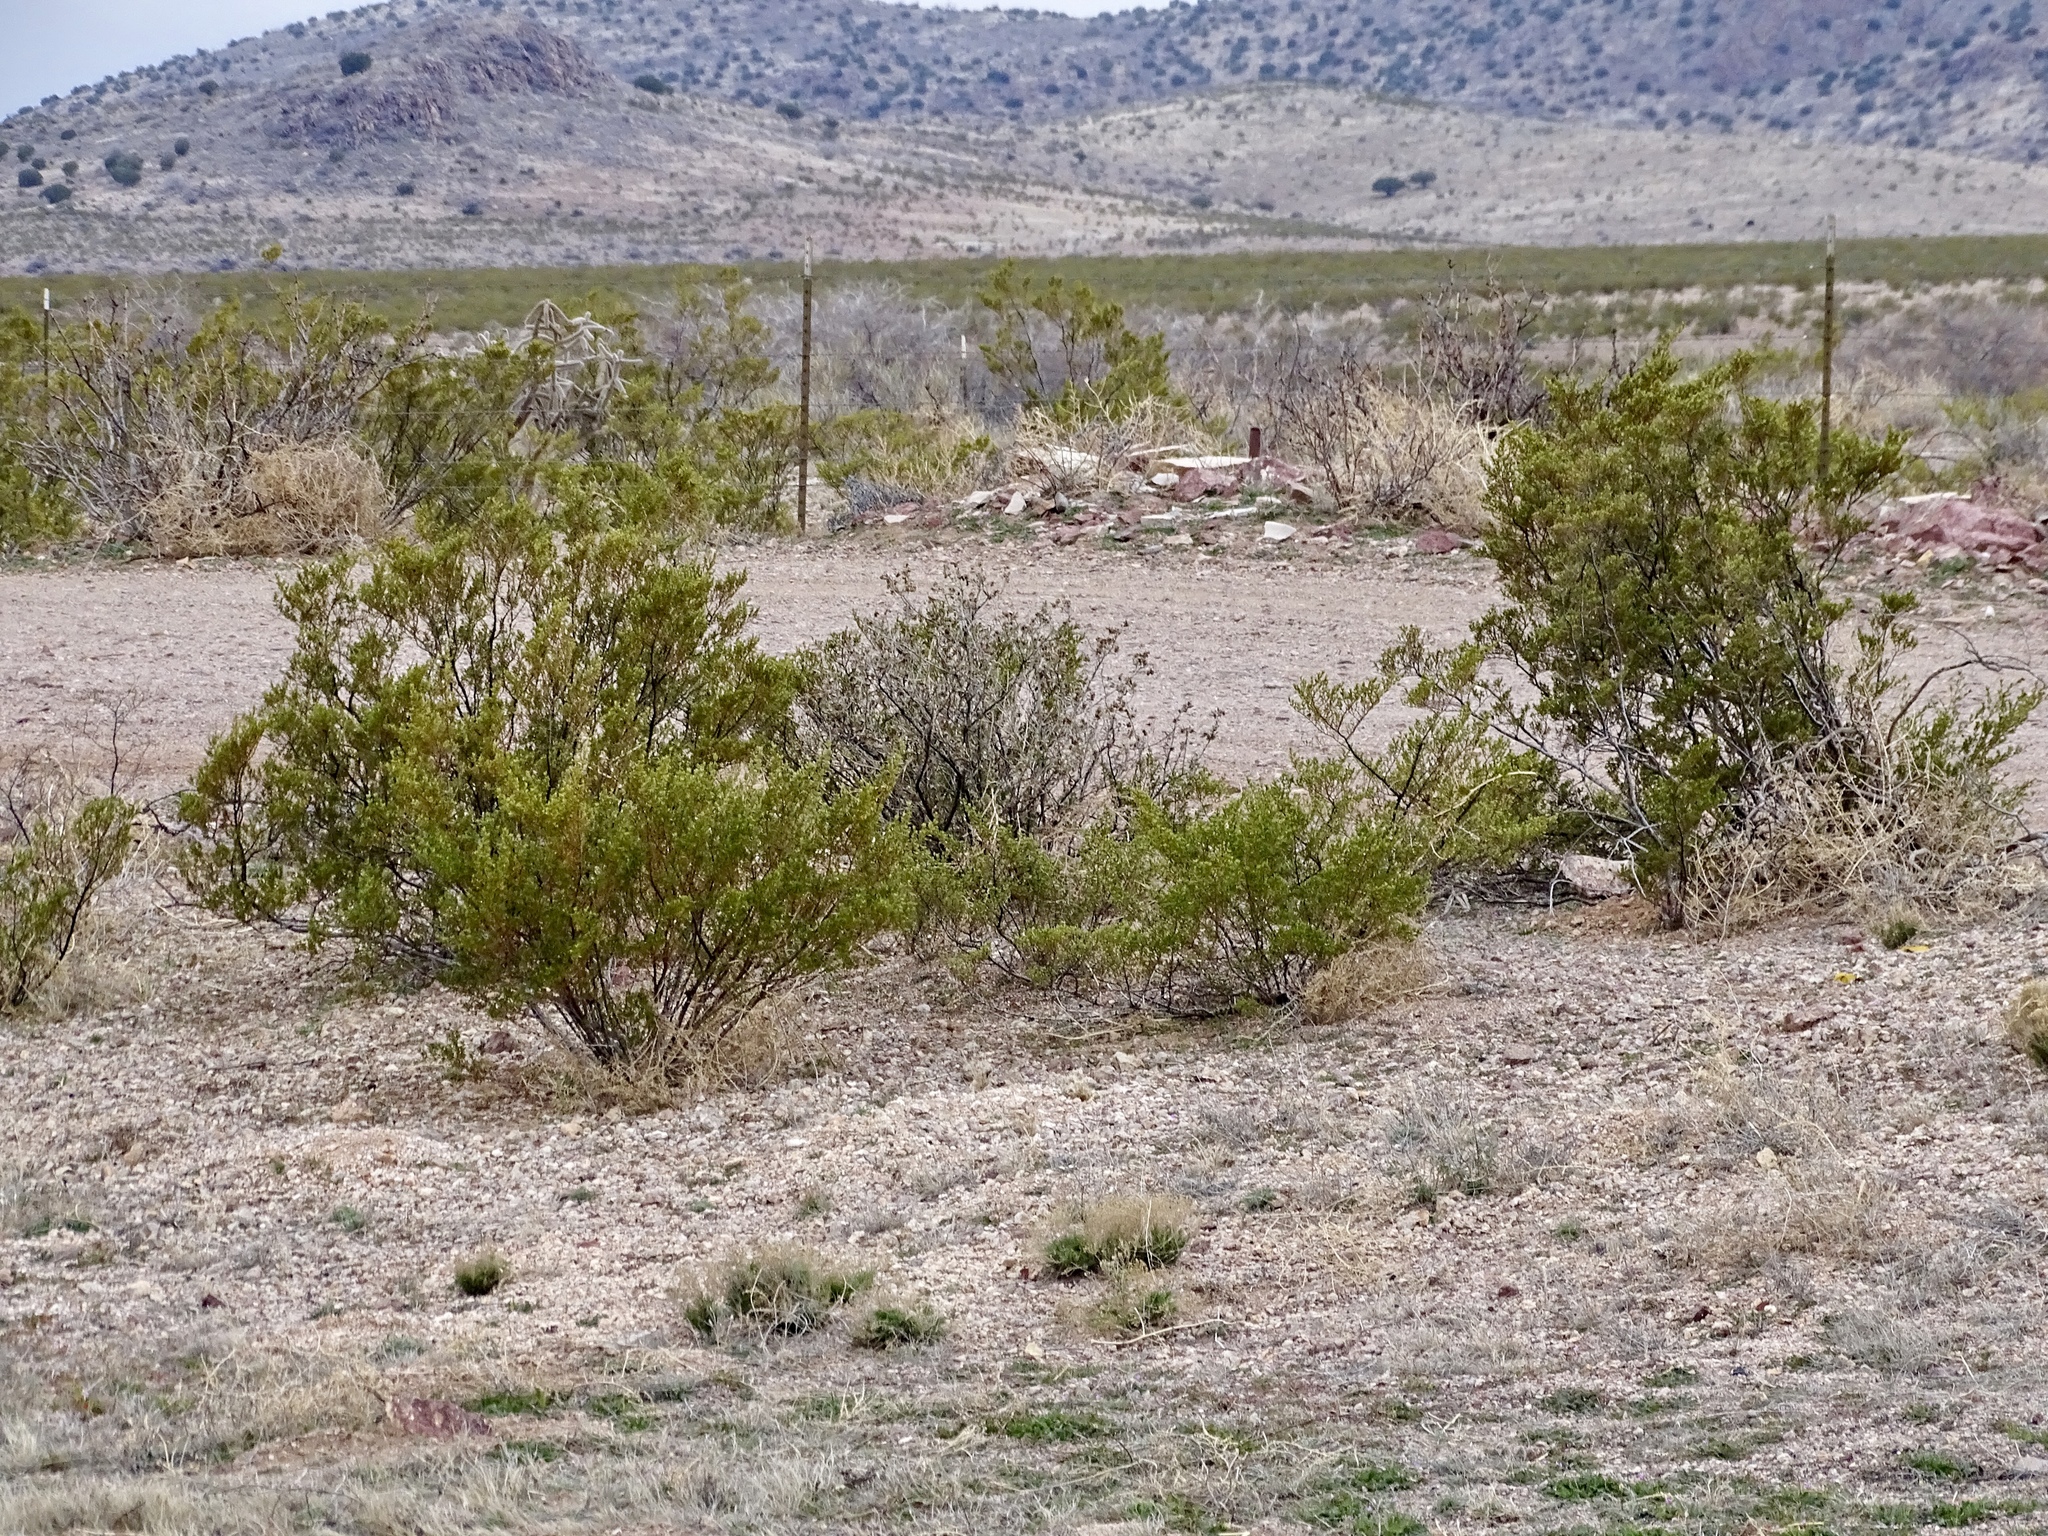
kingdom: Plantae
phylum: Tracheophyta
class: Magnoliopsida
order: Zygophyllales
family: Zygophyllaceae
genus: Larrea
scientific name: Larrea tridentata
